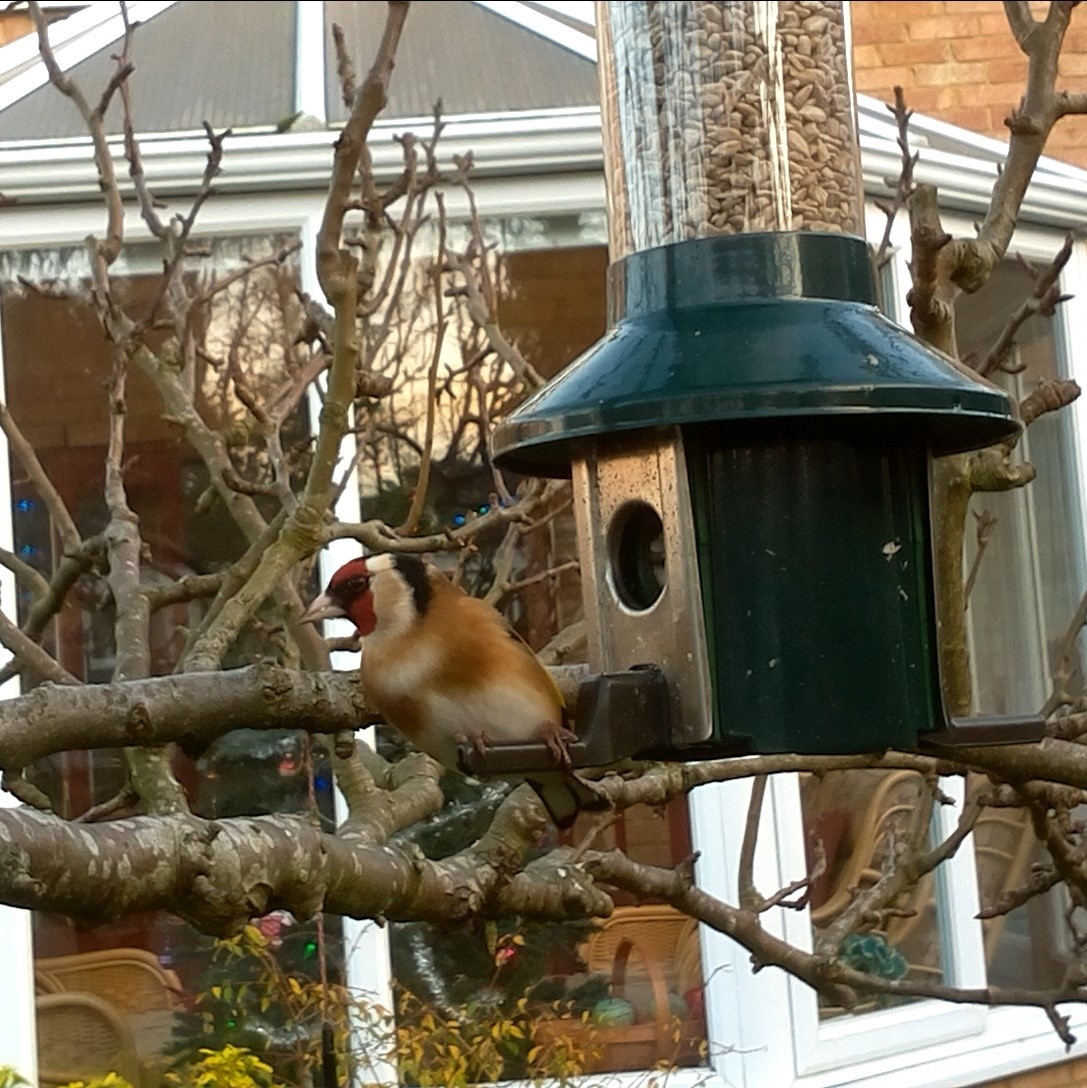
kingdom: Animalia
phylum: Chordata
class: Aves
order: Passeriformes
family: Fringillidae
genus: Carduelis
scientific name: Carduelis carduelis
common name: European goldfinch
